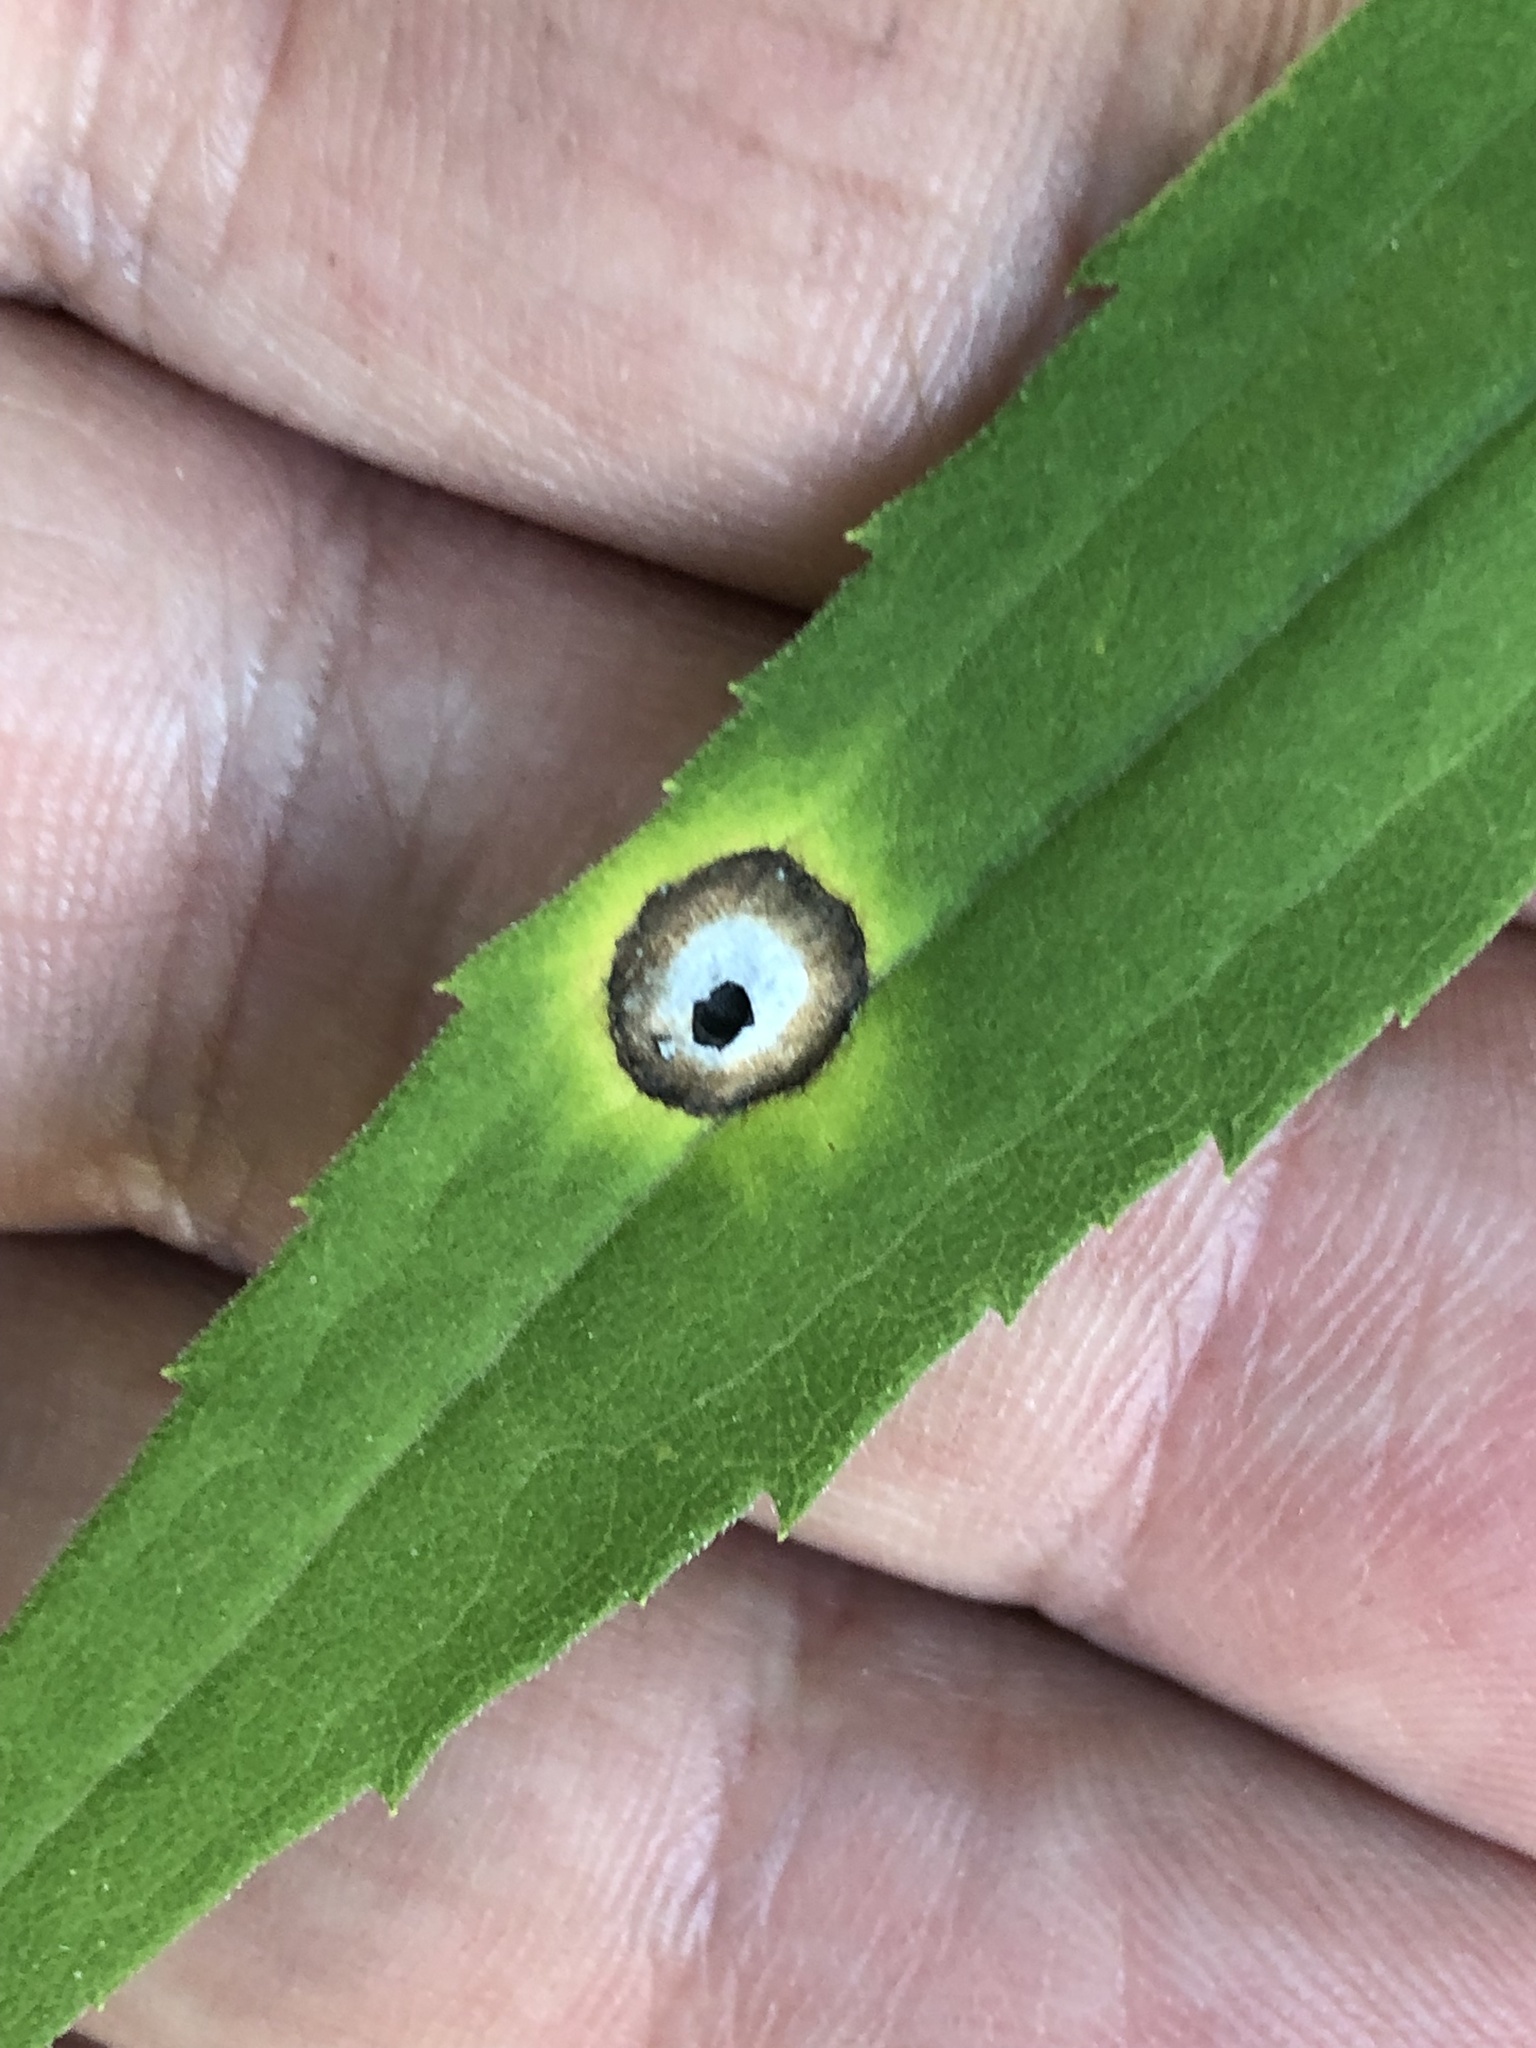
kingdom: Animalia
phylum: Arthropoda
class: Insecta
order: Diptera
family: Cecidomyiidae
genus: Asteromyia
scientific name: Asteromyia carbonifera
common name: Carbonifera goldenrod gall midge
